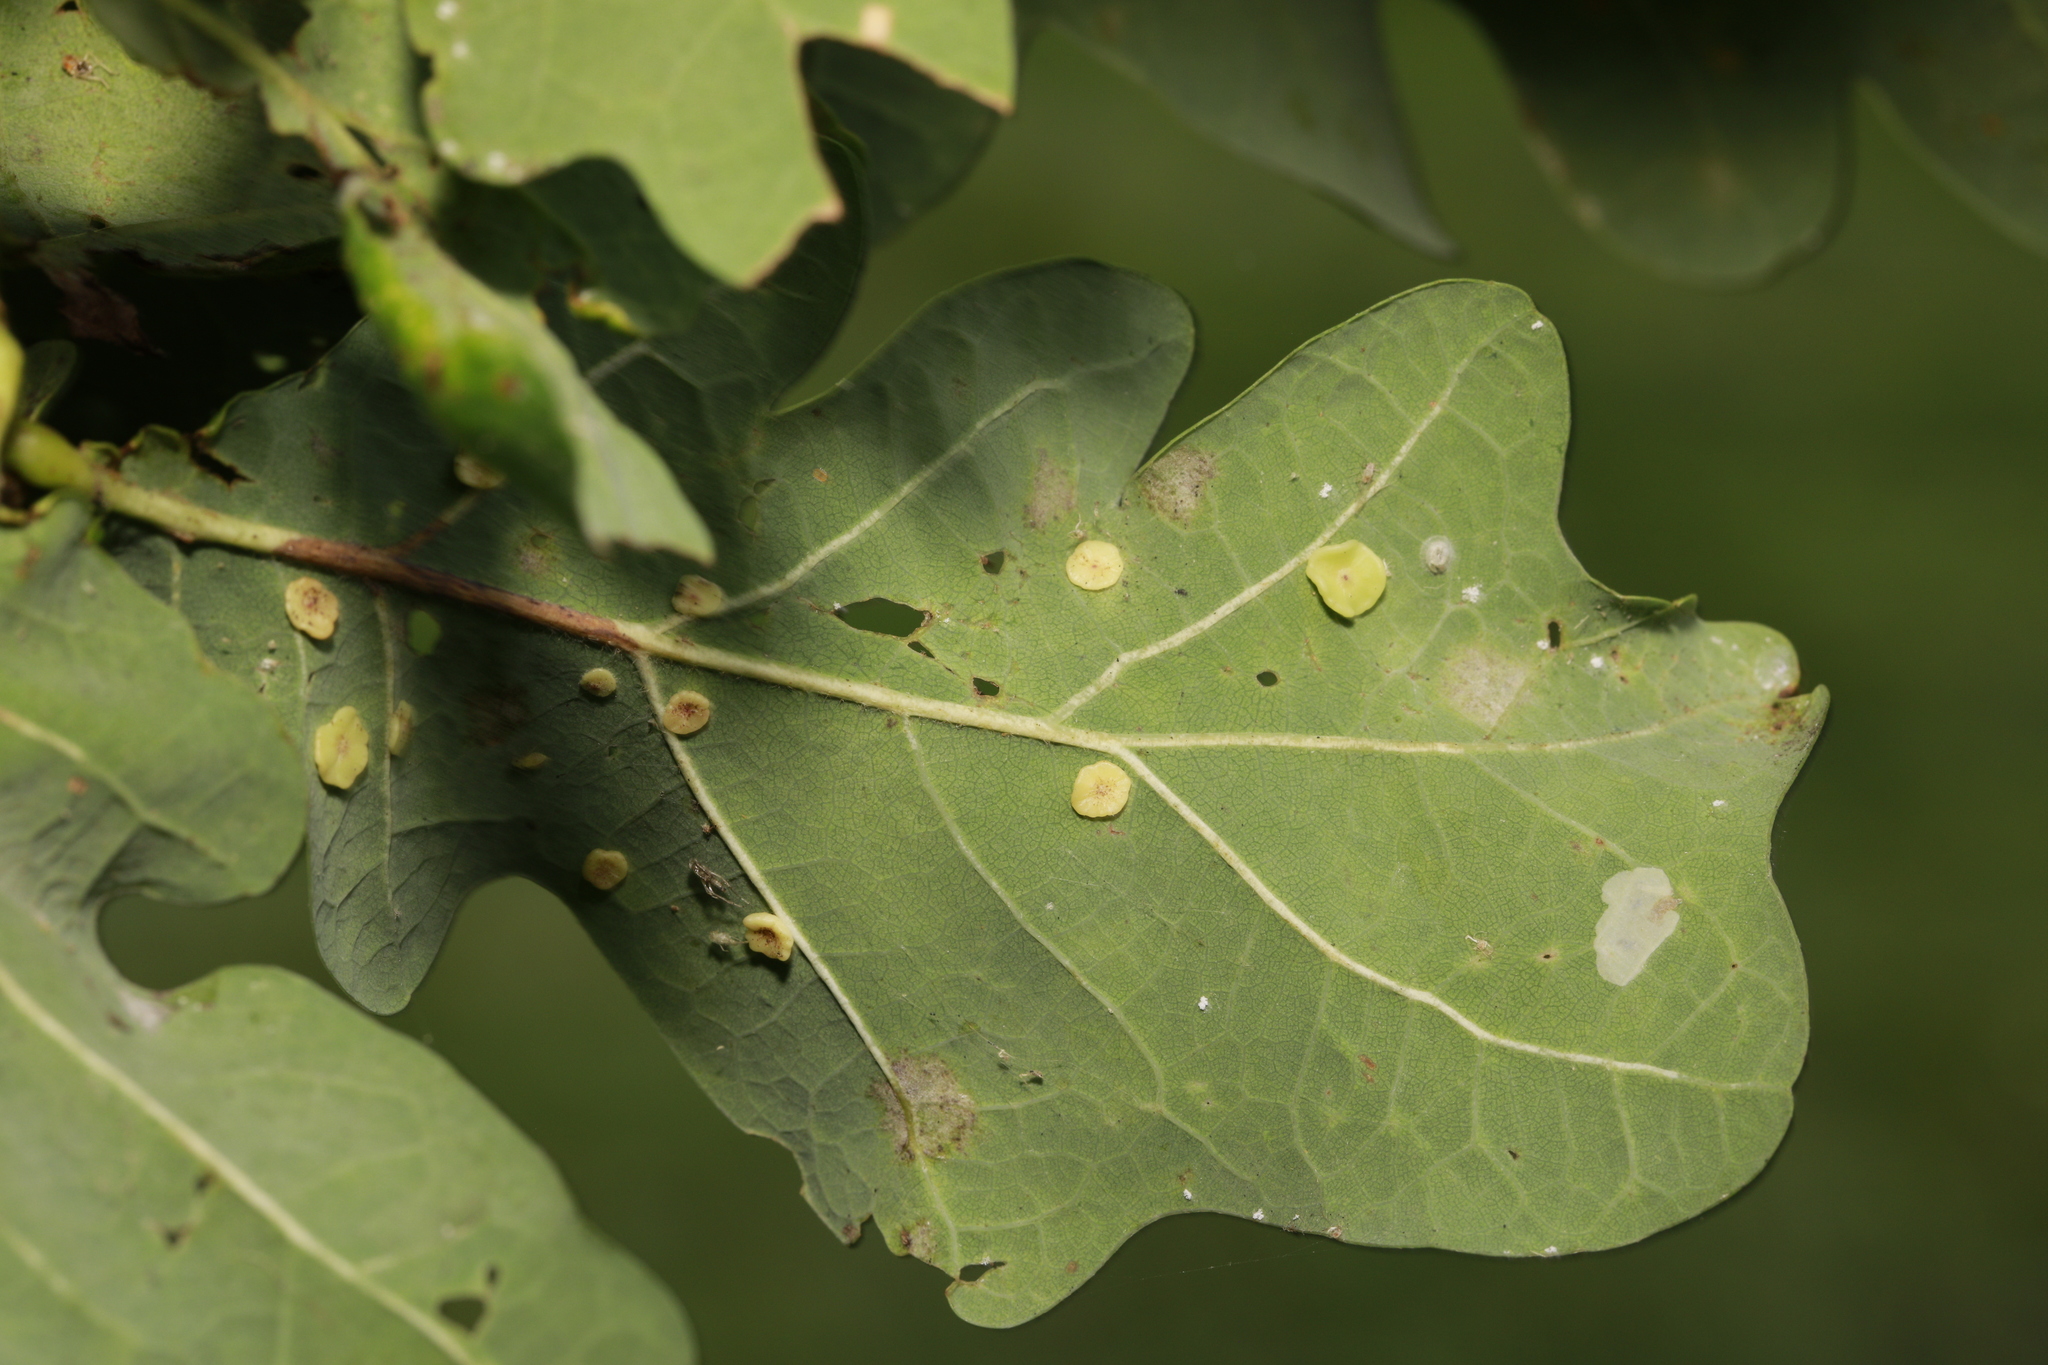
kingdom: Animalia
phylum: Arthropoda
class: Insecta
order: Hymenoptera
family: Cynipidae
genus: Neuroterus
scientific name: Neuroterus albipes
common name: Smooth spangle gall
